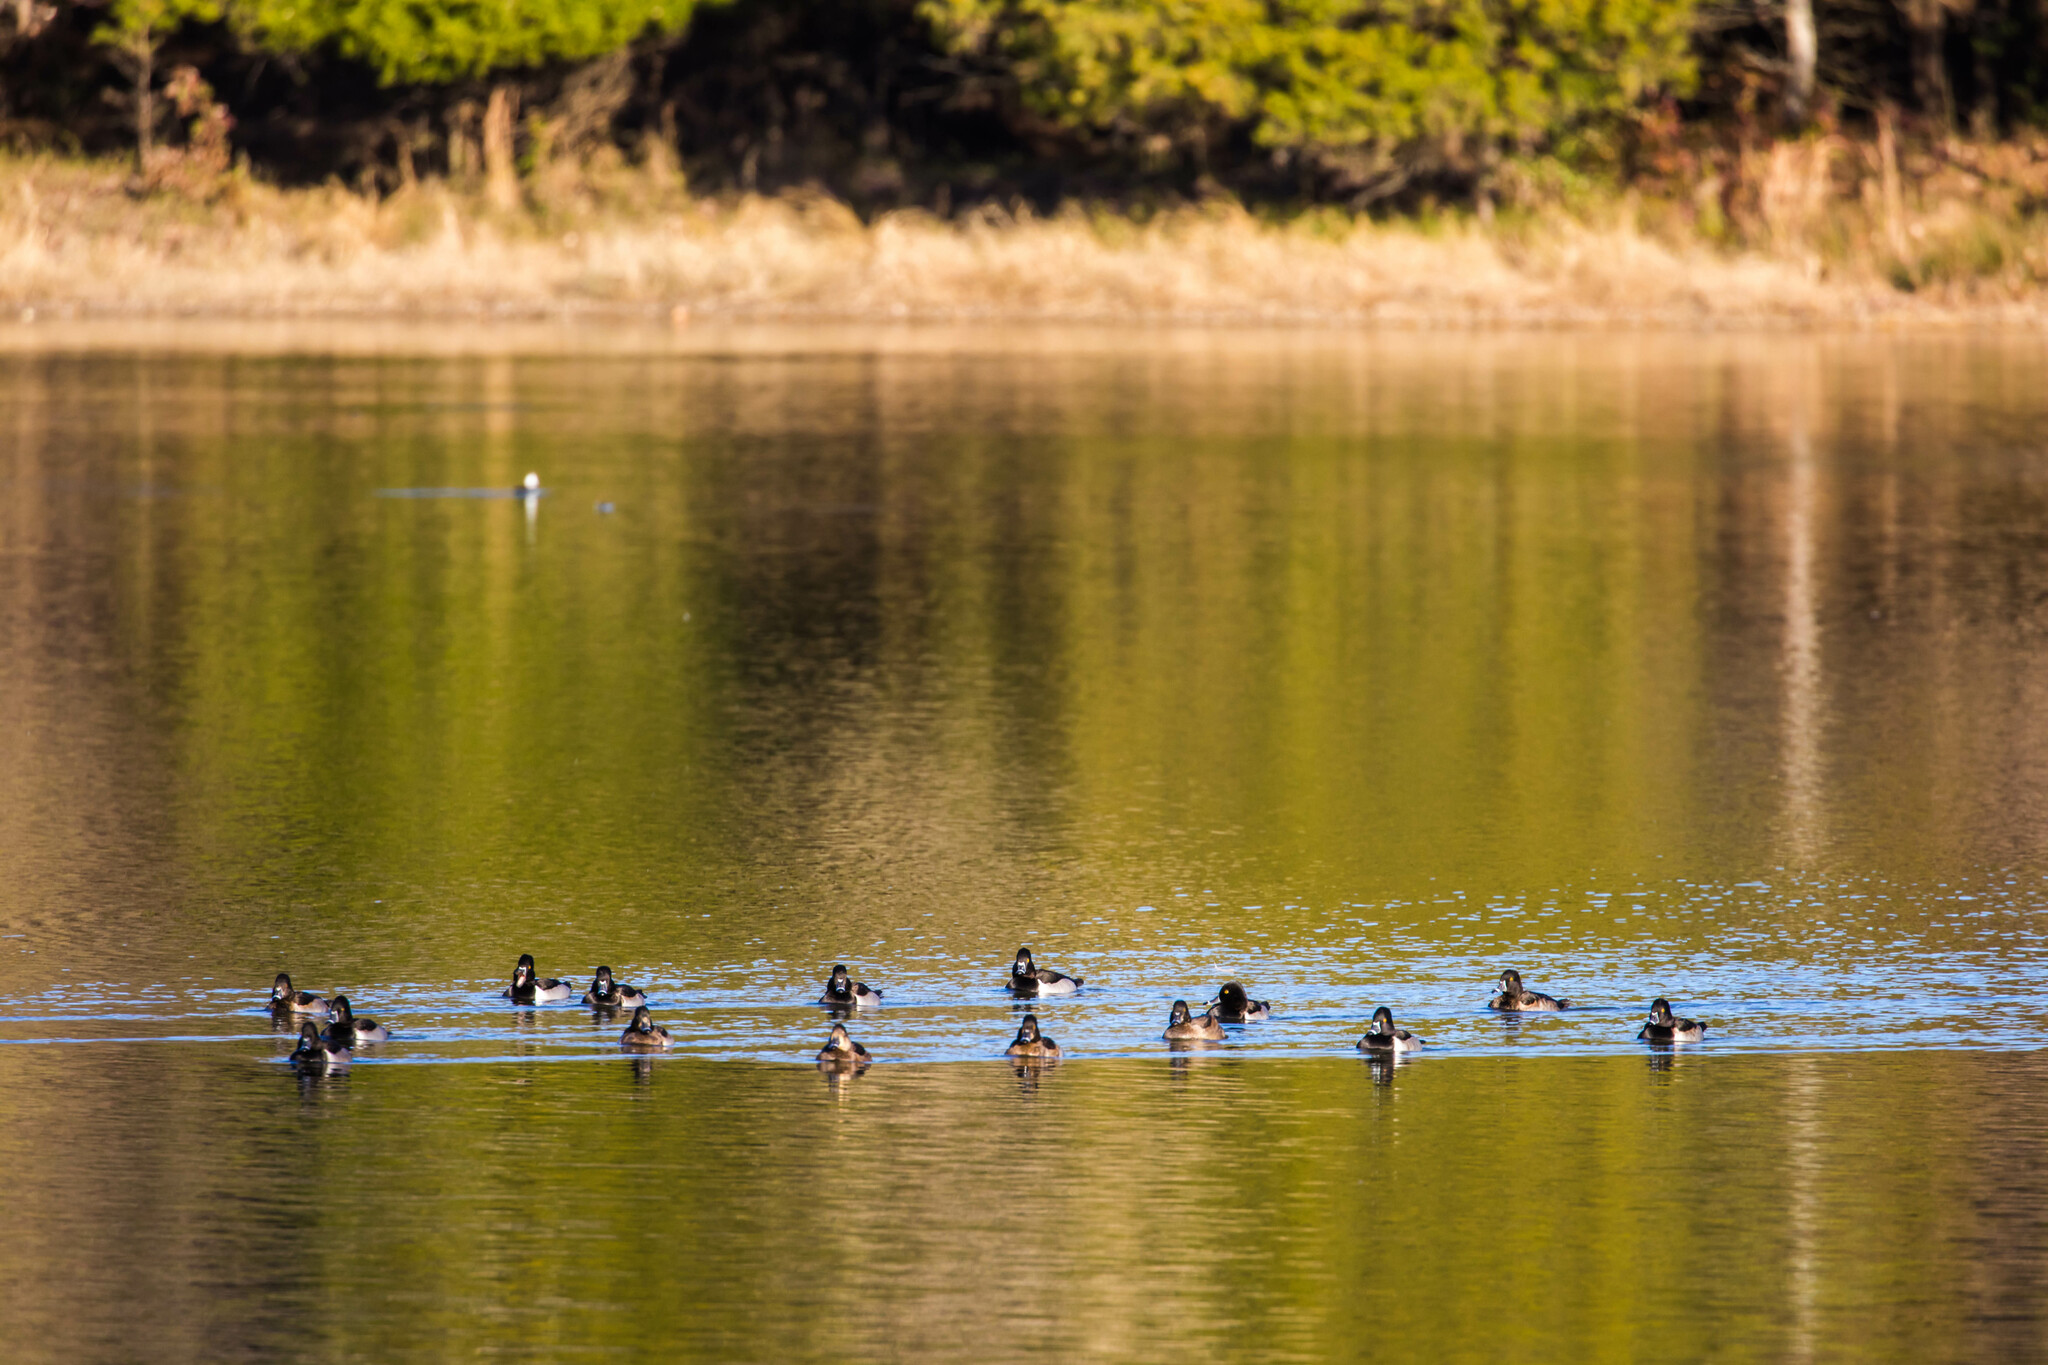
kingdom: Animalia
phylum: Chordata
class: Aves
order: Anseriformes
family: Anatidae
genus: Aythya
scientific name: Aythya collaris
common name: Ring-necked duck
